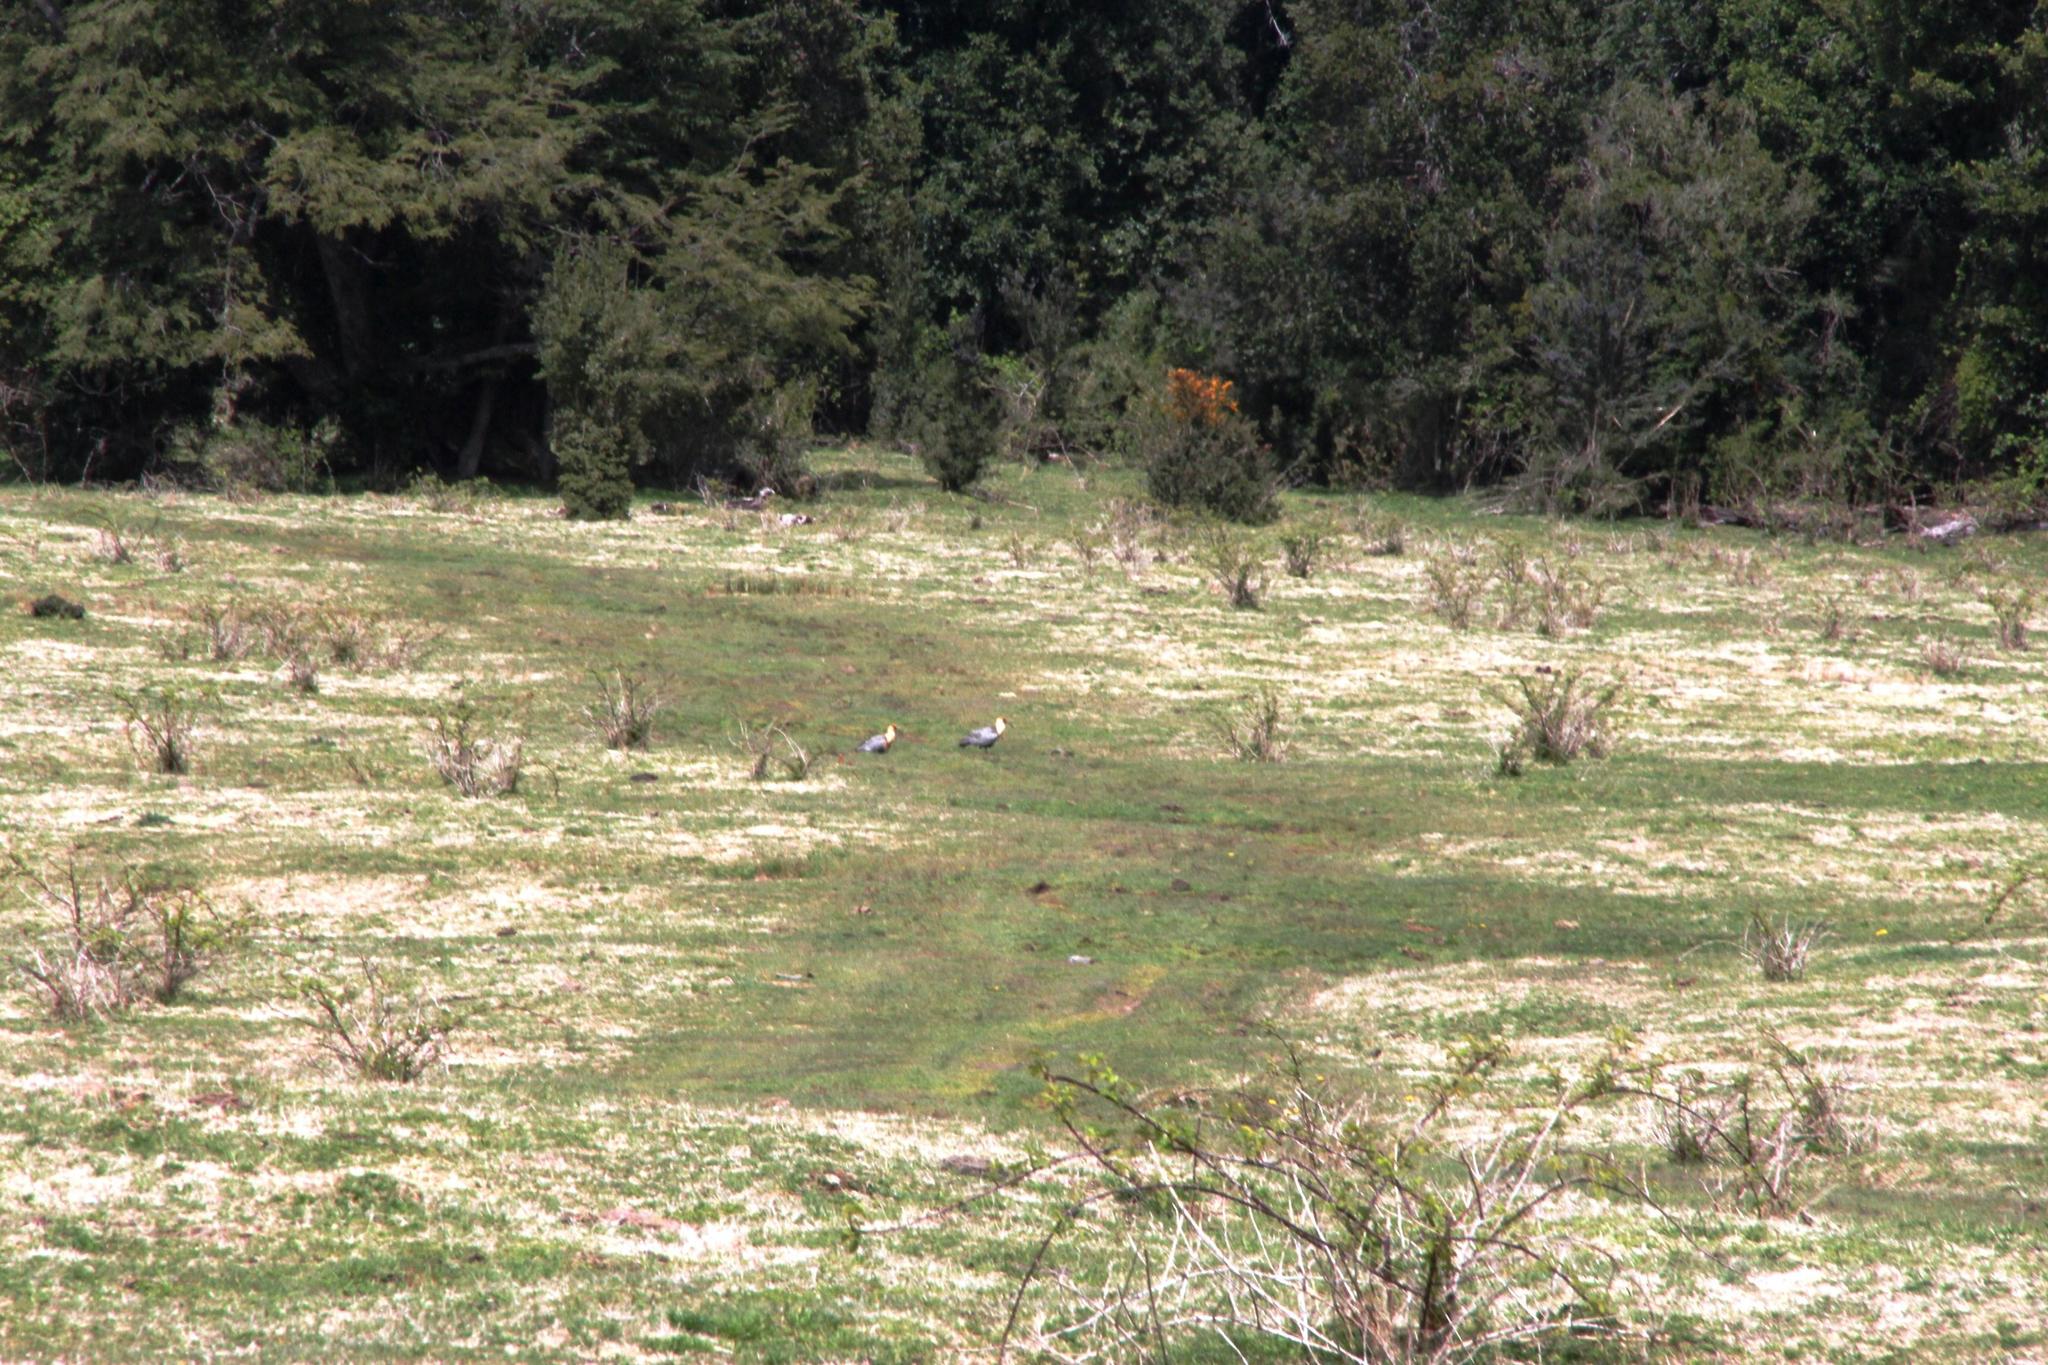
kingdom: Animalia
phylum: Chordata
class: Aves
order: Pelecaniformes
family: Threskiornithidae
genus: Theristicus
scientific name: Theristicus melanopis
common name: Black-faced ibis
